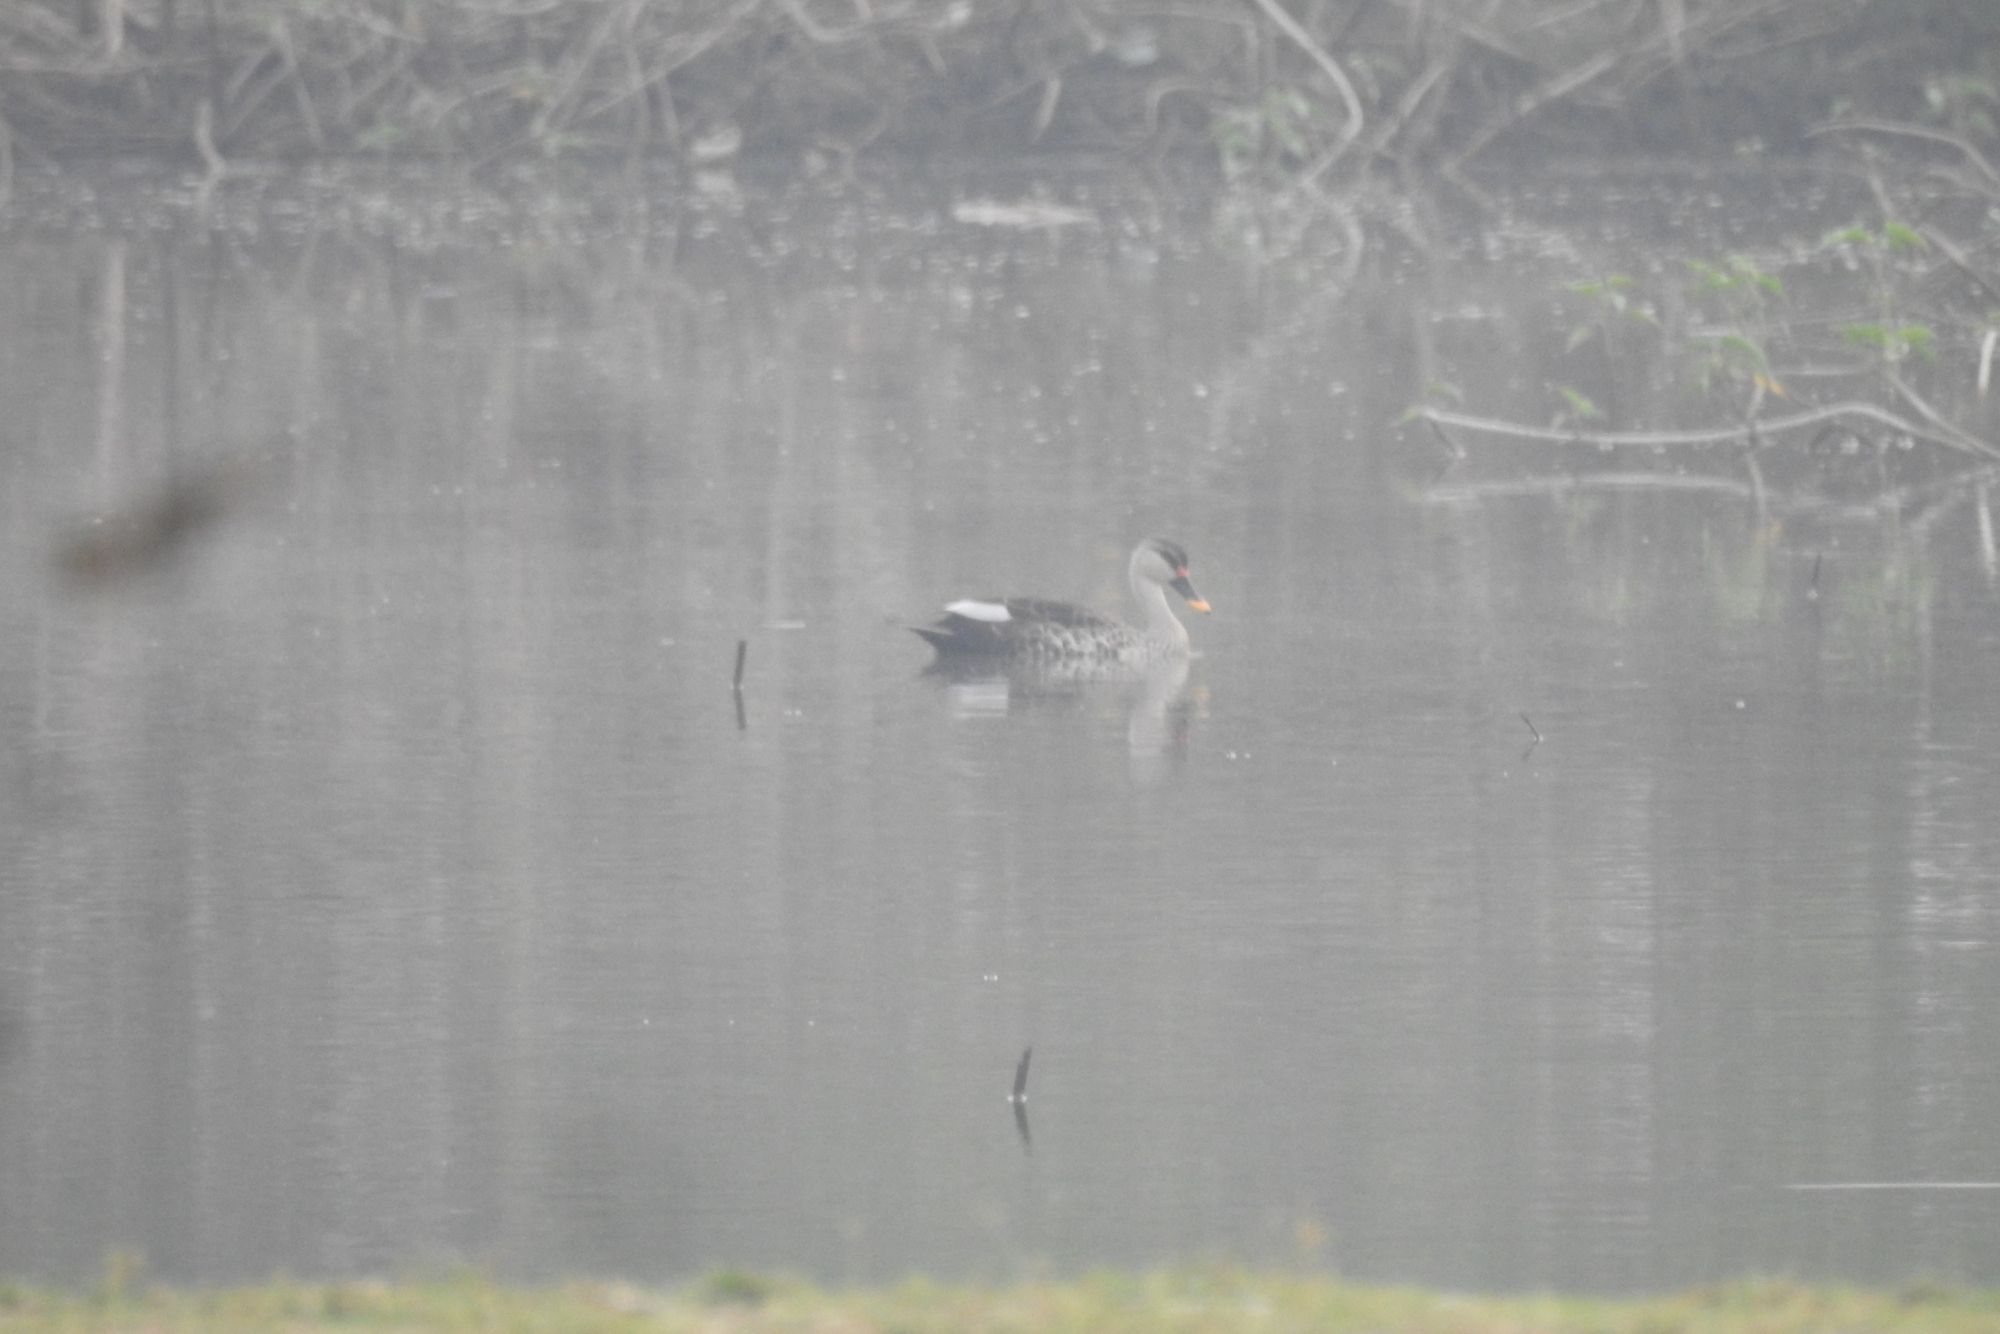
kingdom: Animalia
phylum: Chordata
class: Aves
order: Anseriformes
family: Anatidae
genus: Anas
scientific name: Anas poecilorhyncha
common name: Indian spot-billed duck
